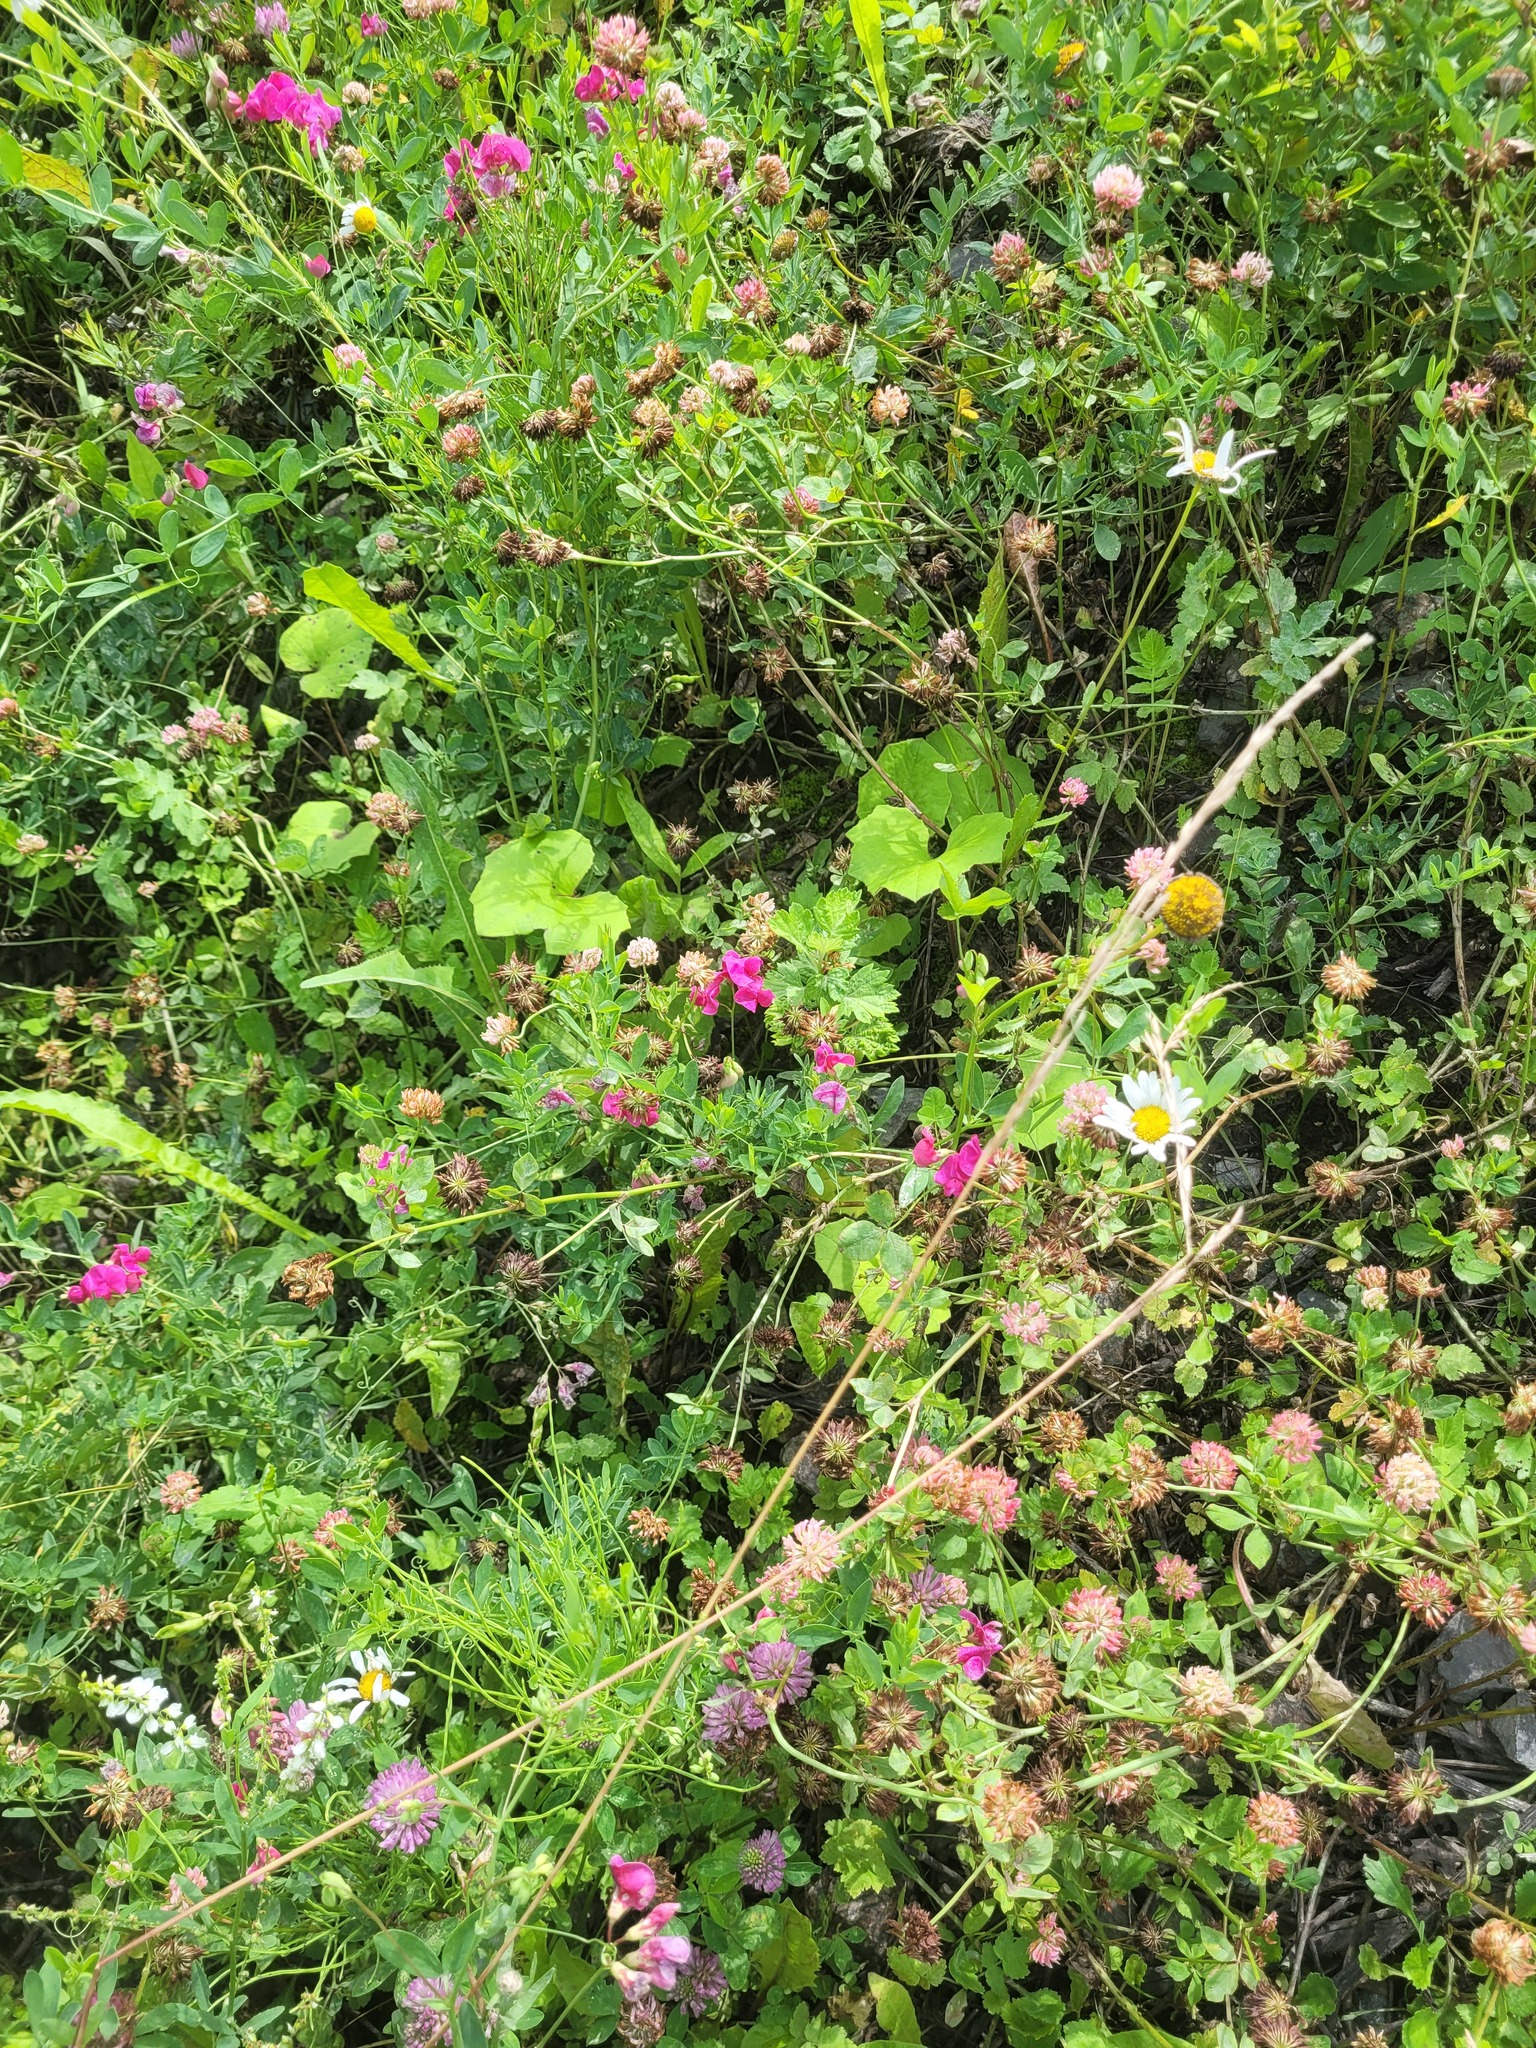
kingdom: Plantae
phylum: Tracheophyta
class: Magnoliopsida
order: Fabales
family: Fabaceae
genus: Lathyrus
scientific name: Lathyrus tuberosus
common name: Tuberous pea
